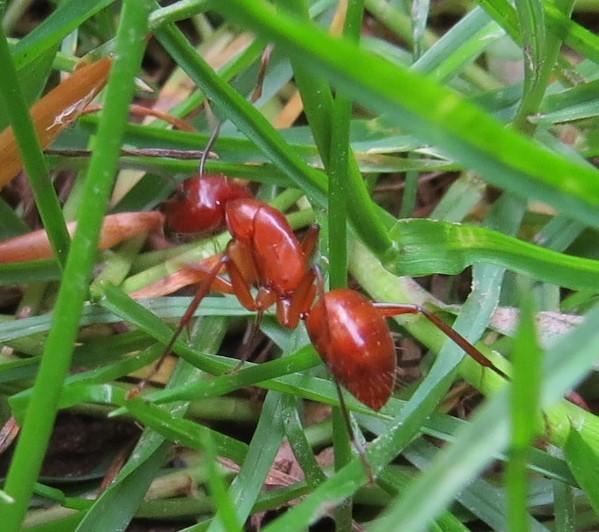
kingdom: Animalia
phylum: Arthropoda
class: Insecta
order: Hymenoptera
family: Formicidae
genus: Camponotus
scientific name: Camponotus castaneus
